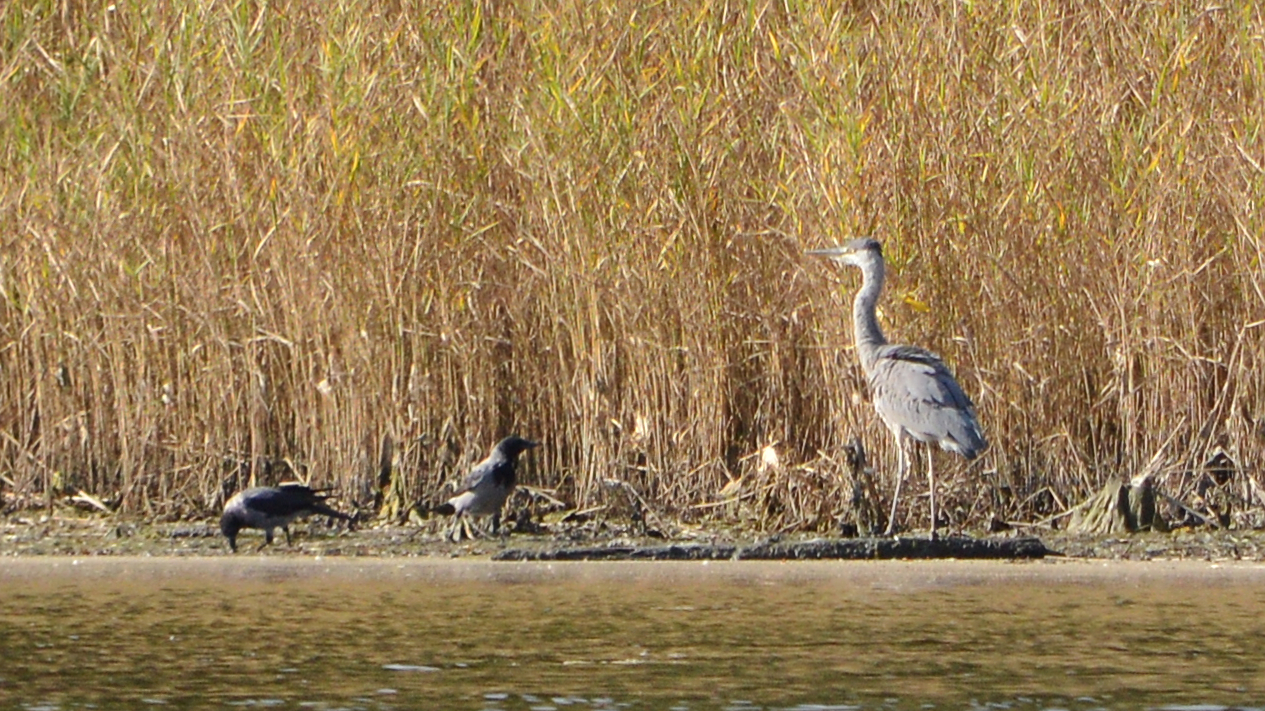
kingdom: Animalia
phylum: Chordata
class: Aves
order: Passeriformes
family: Corvidae
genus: Corvus
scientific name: Corvus cornix
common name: Hooded crow
